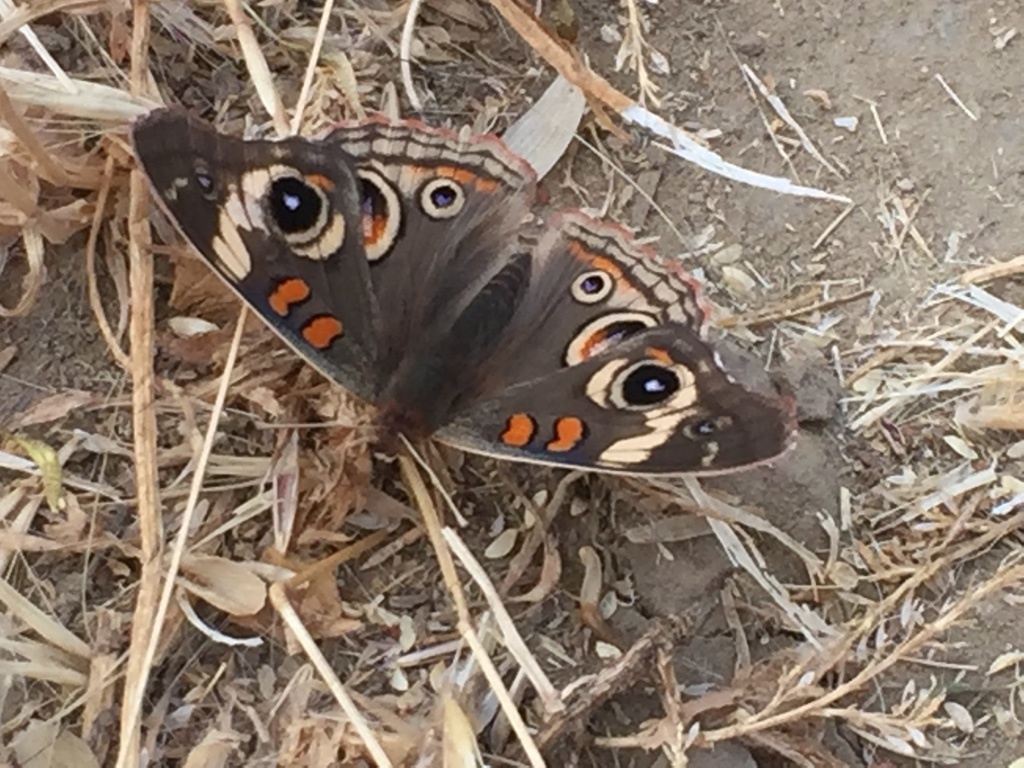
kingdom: Animalia
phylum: Arthropoda
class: Insecta
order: Lepidoptera
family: Nymphalidae
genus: Junonia
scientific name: Junonia grisea
